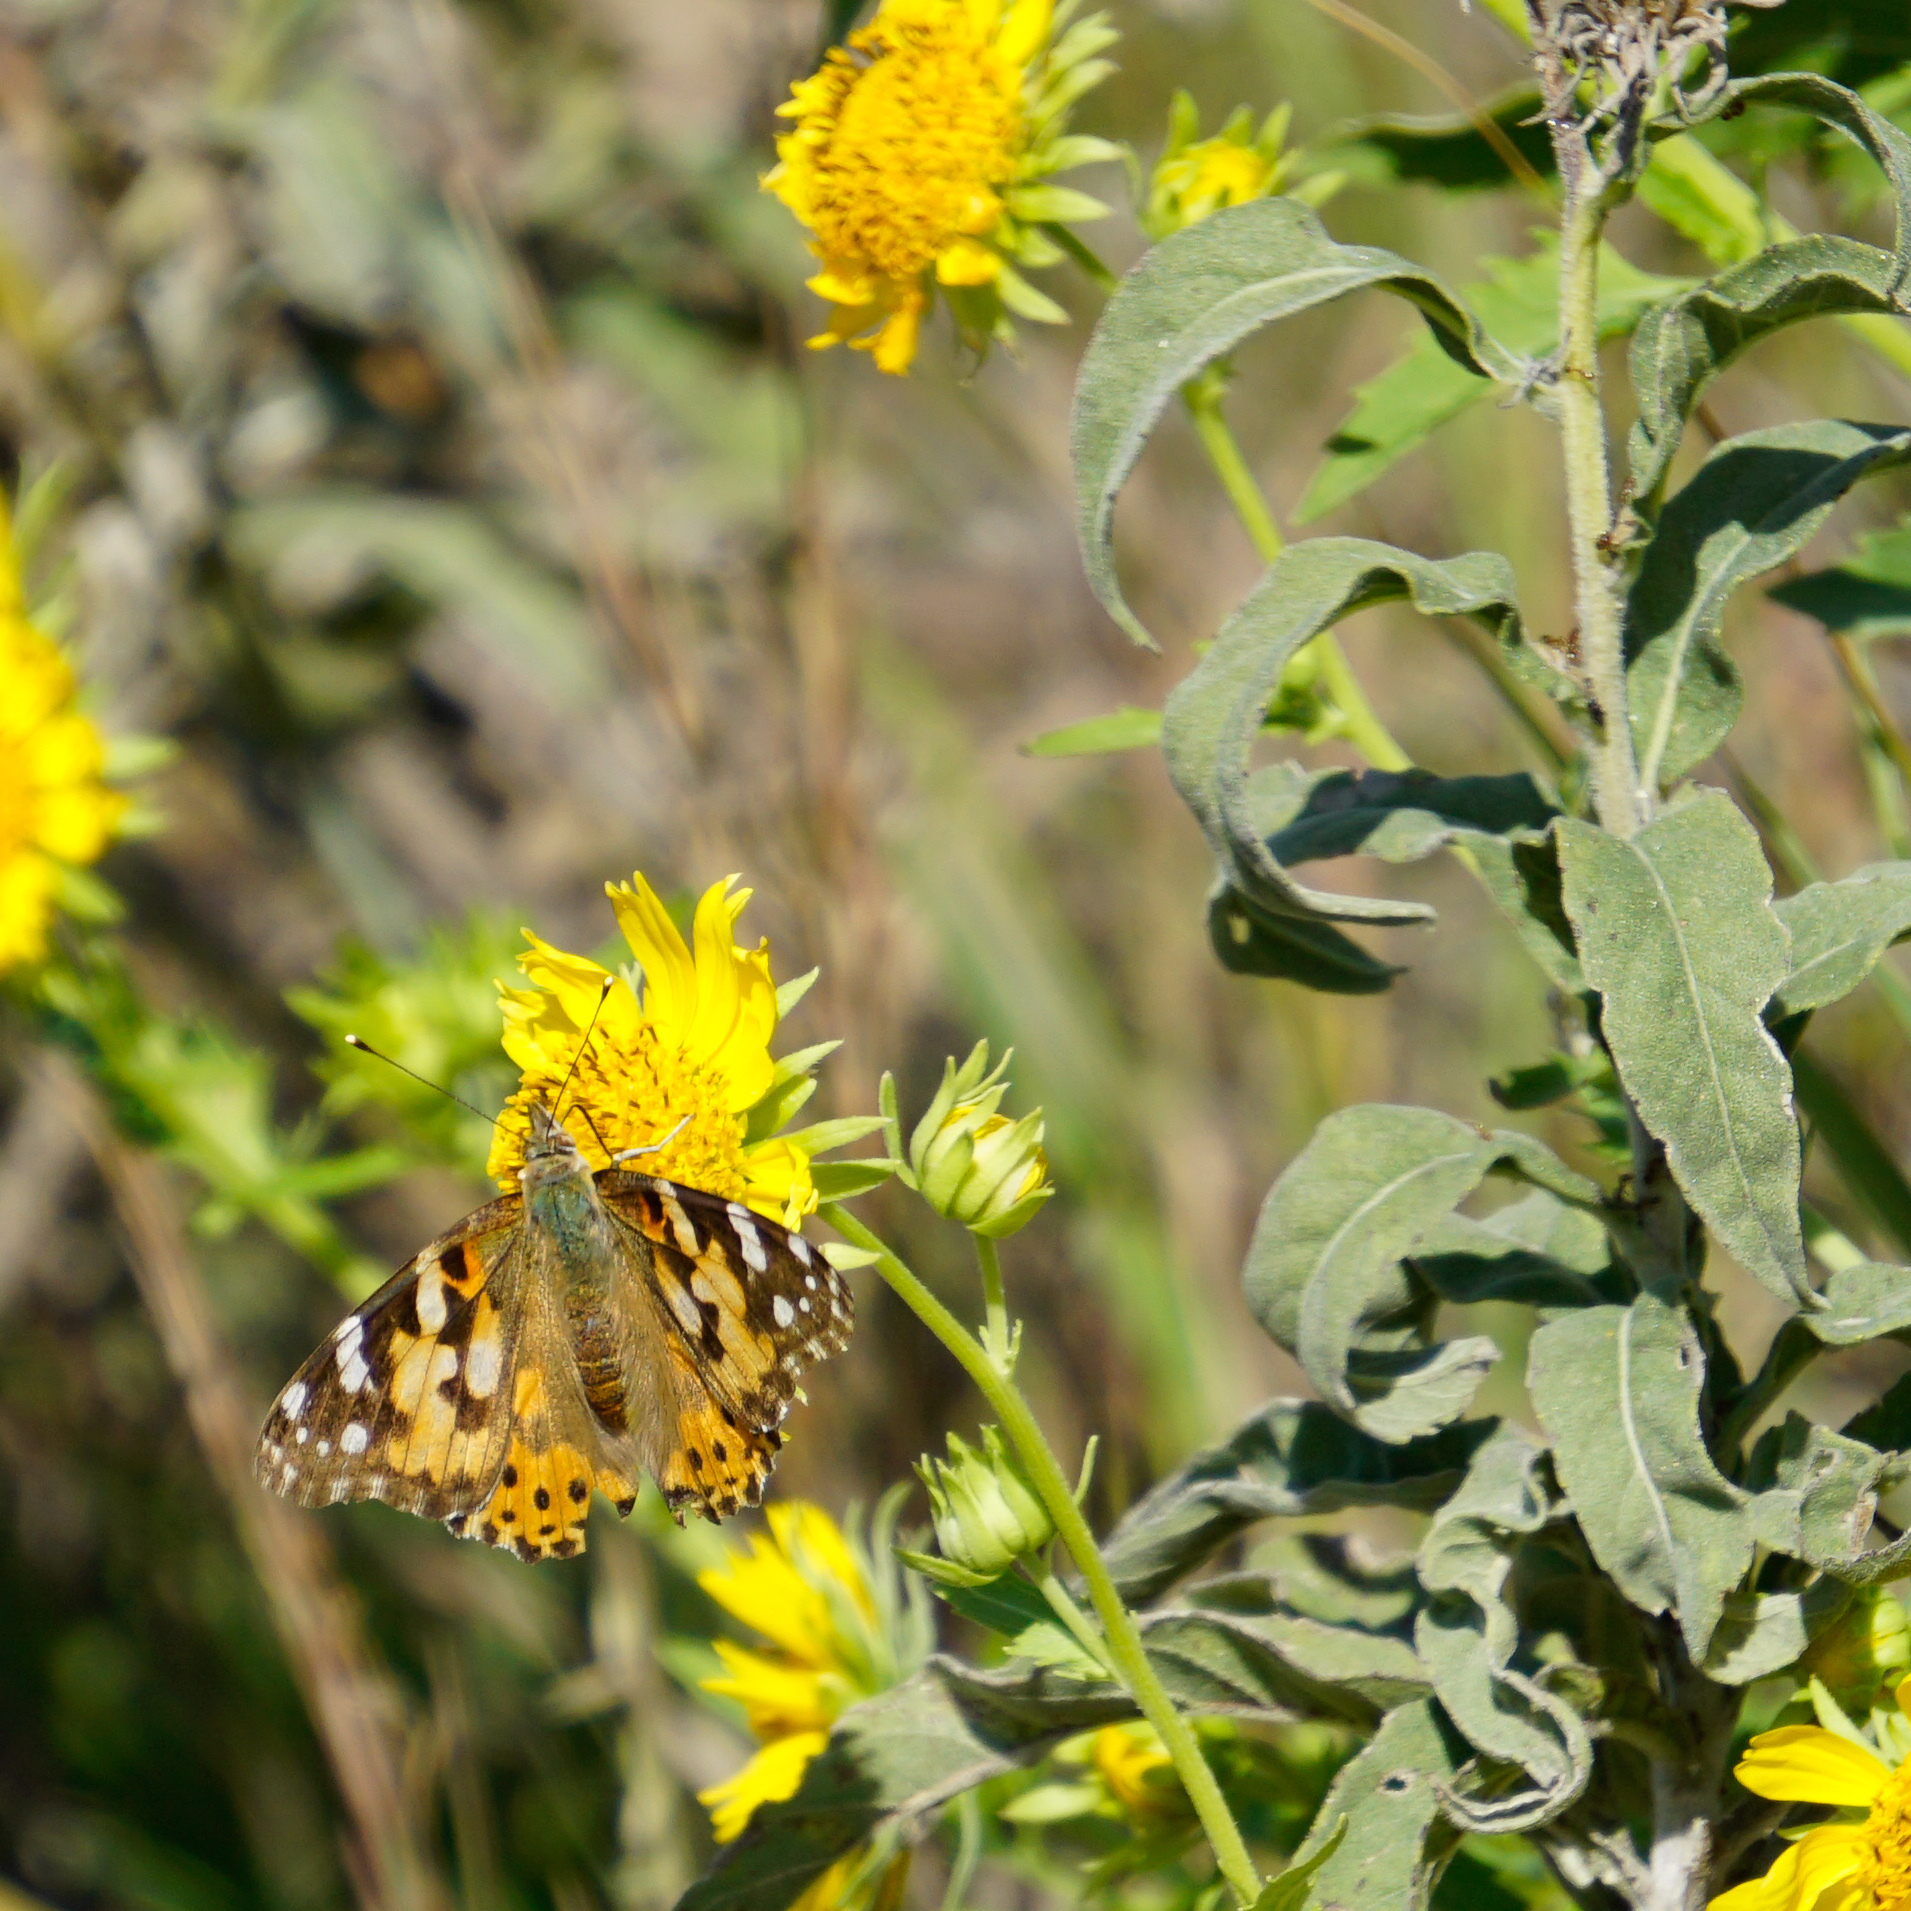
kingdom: Animalia
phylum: Arthropoda
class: Insecta
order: Lepidoptera
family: Nymphalidae
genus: Vanessa
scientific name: Vanessa cardui
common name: Painted lady
